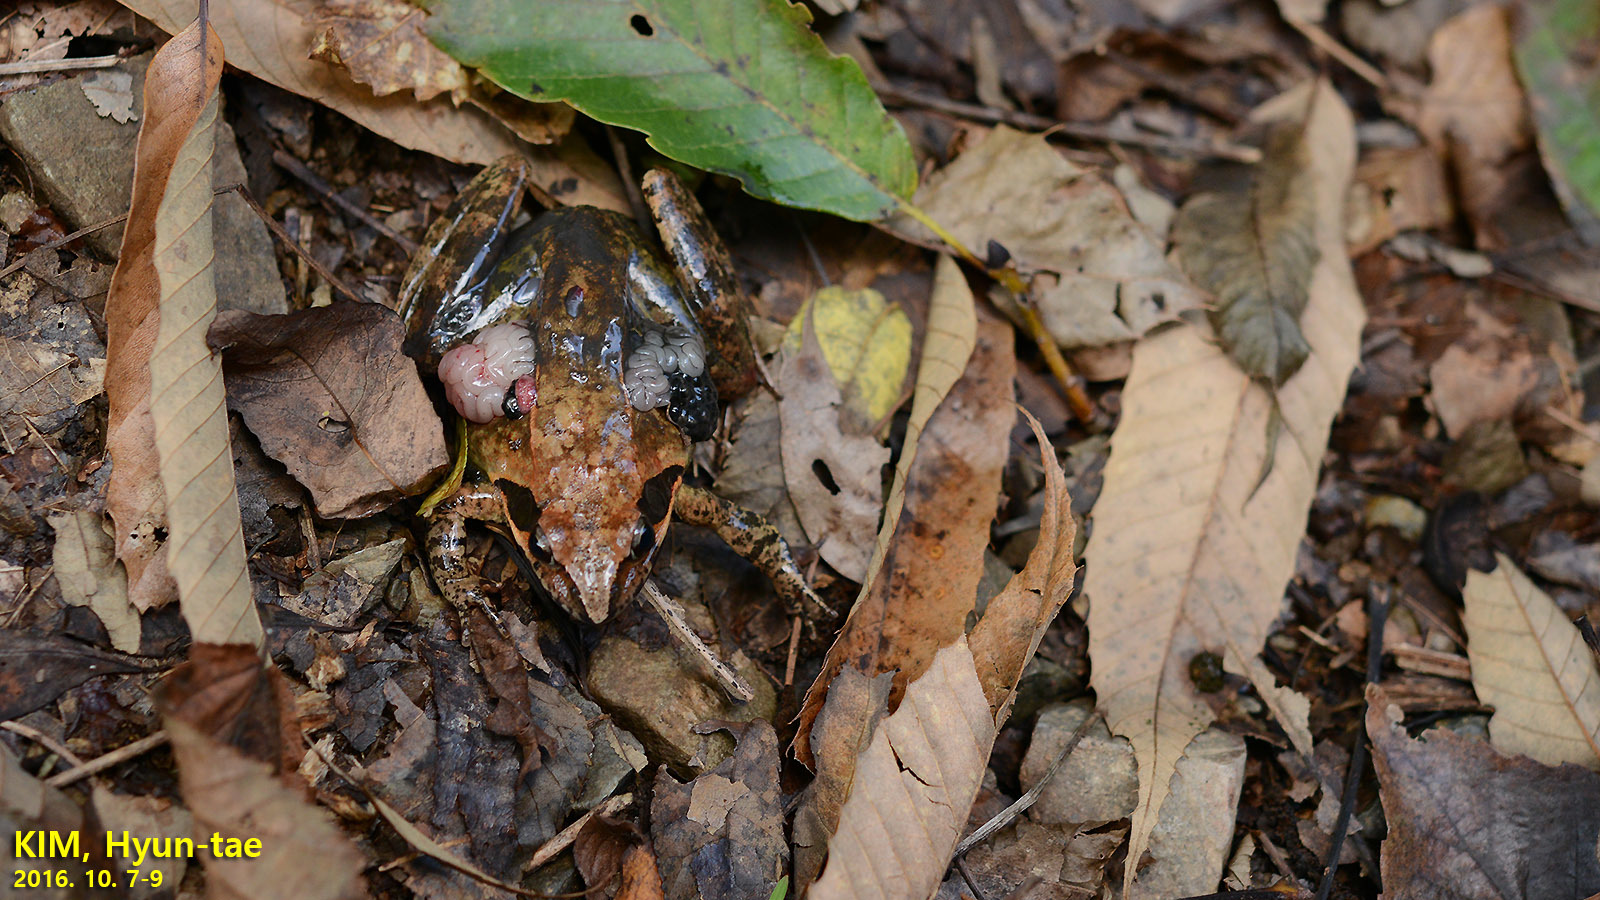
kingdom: Animalia
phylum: Chordata
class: Amphibia
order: Anura
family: Ranidae
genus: Rana
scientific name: Rana uenoi
